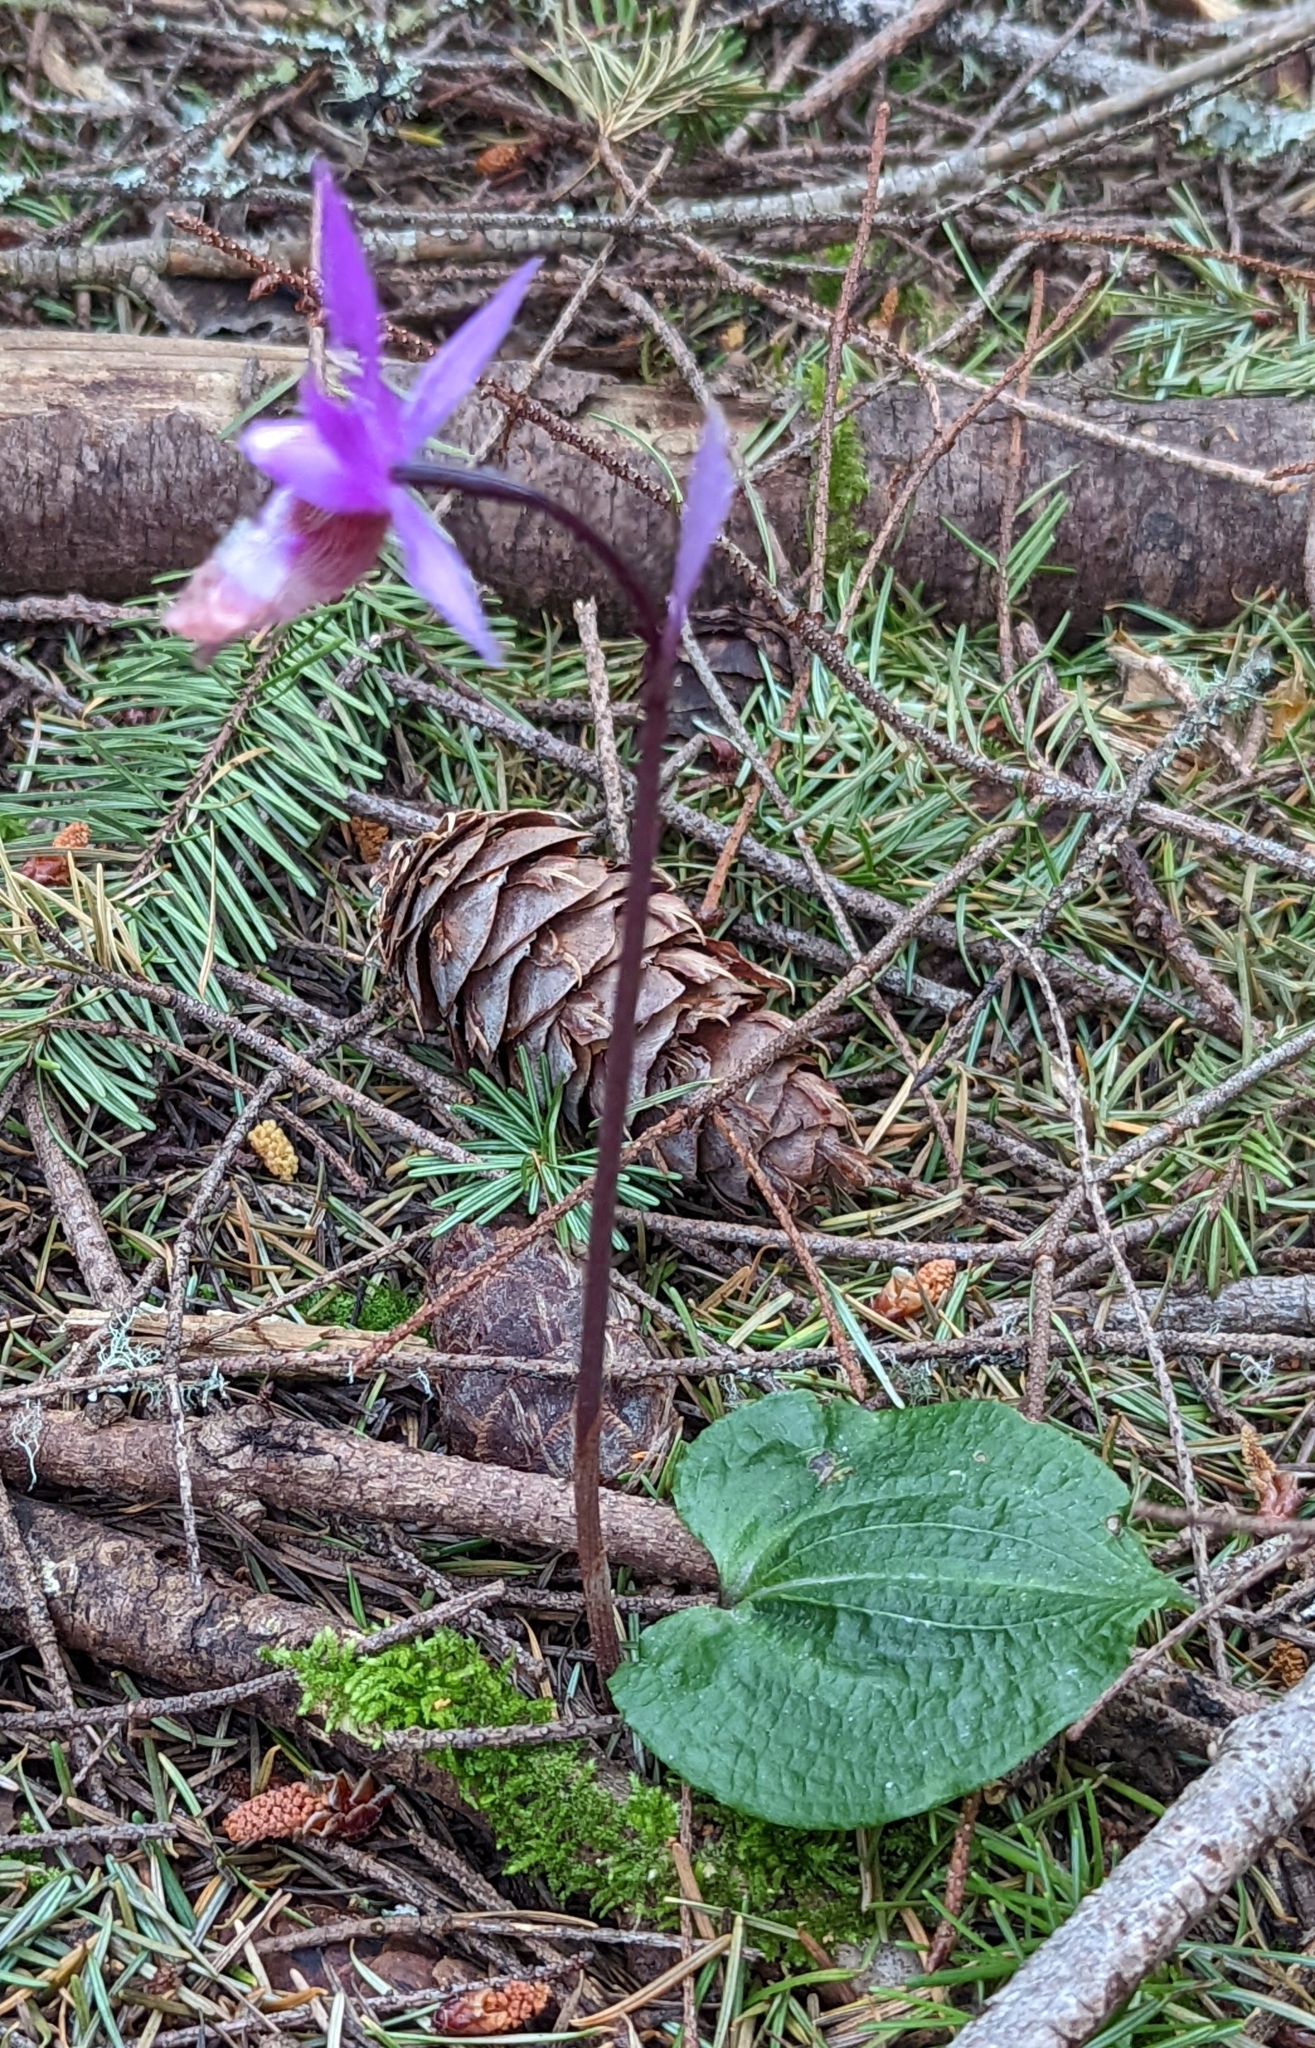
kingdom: Plantae
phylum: Tracheophyta
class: Liliopsida
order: Asparagales
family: Orchidaceae
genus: Calypso
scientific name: Calypso bulbosa
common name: Calypso
